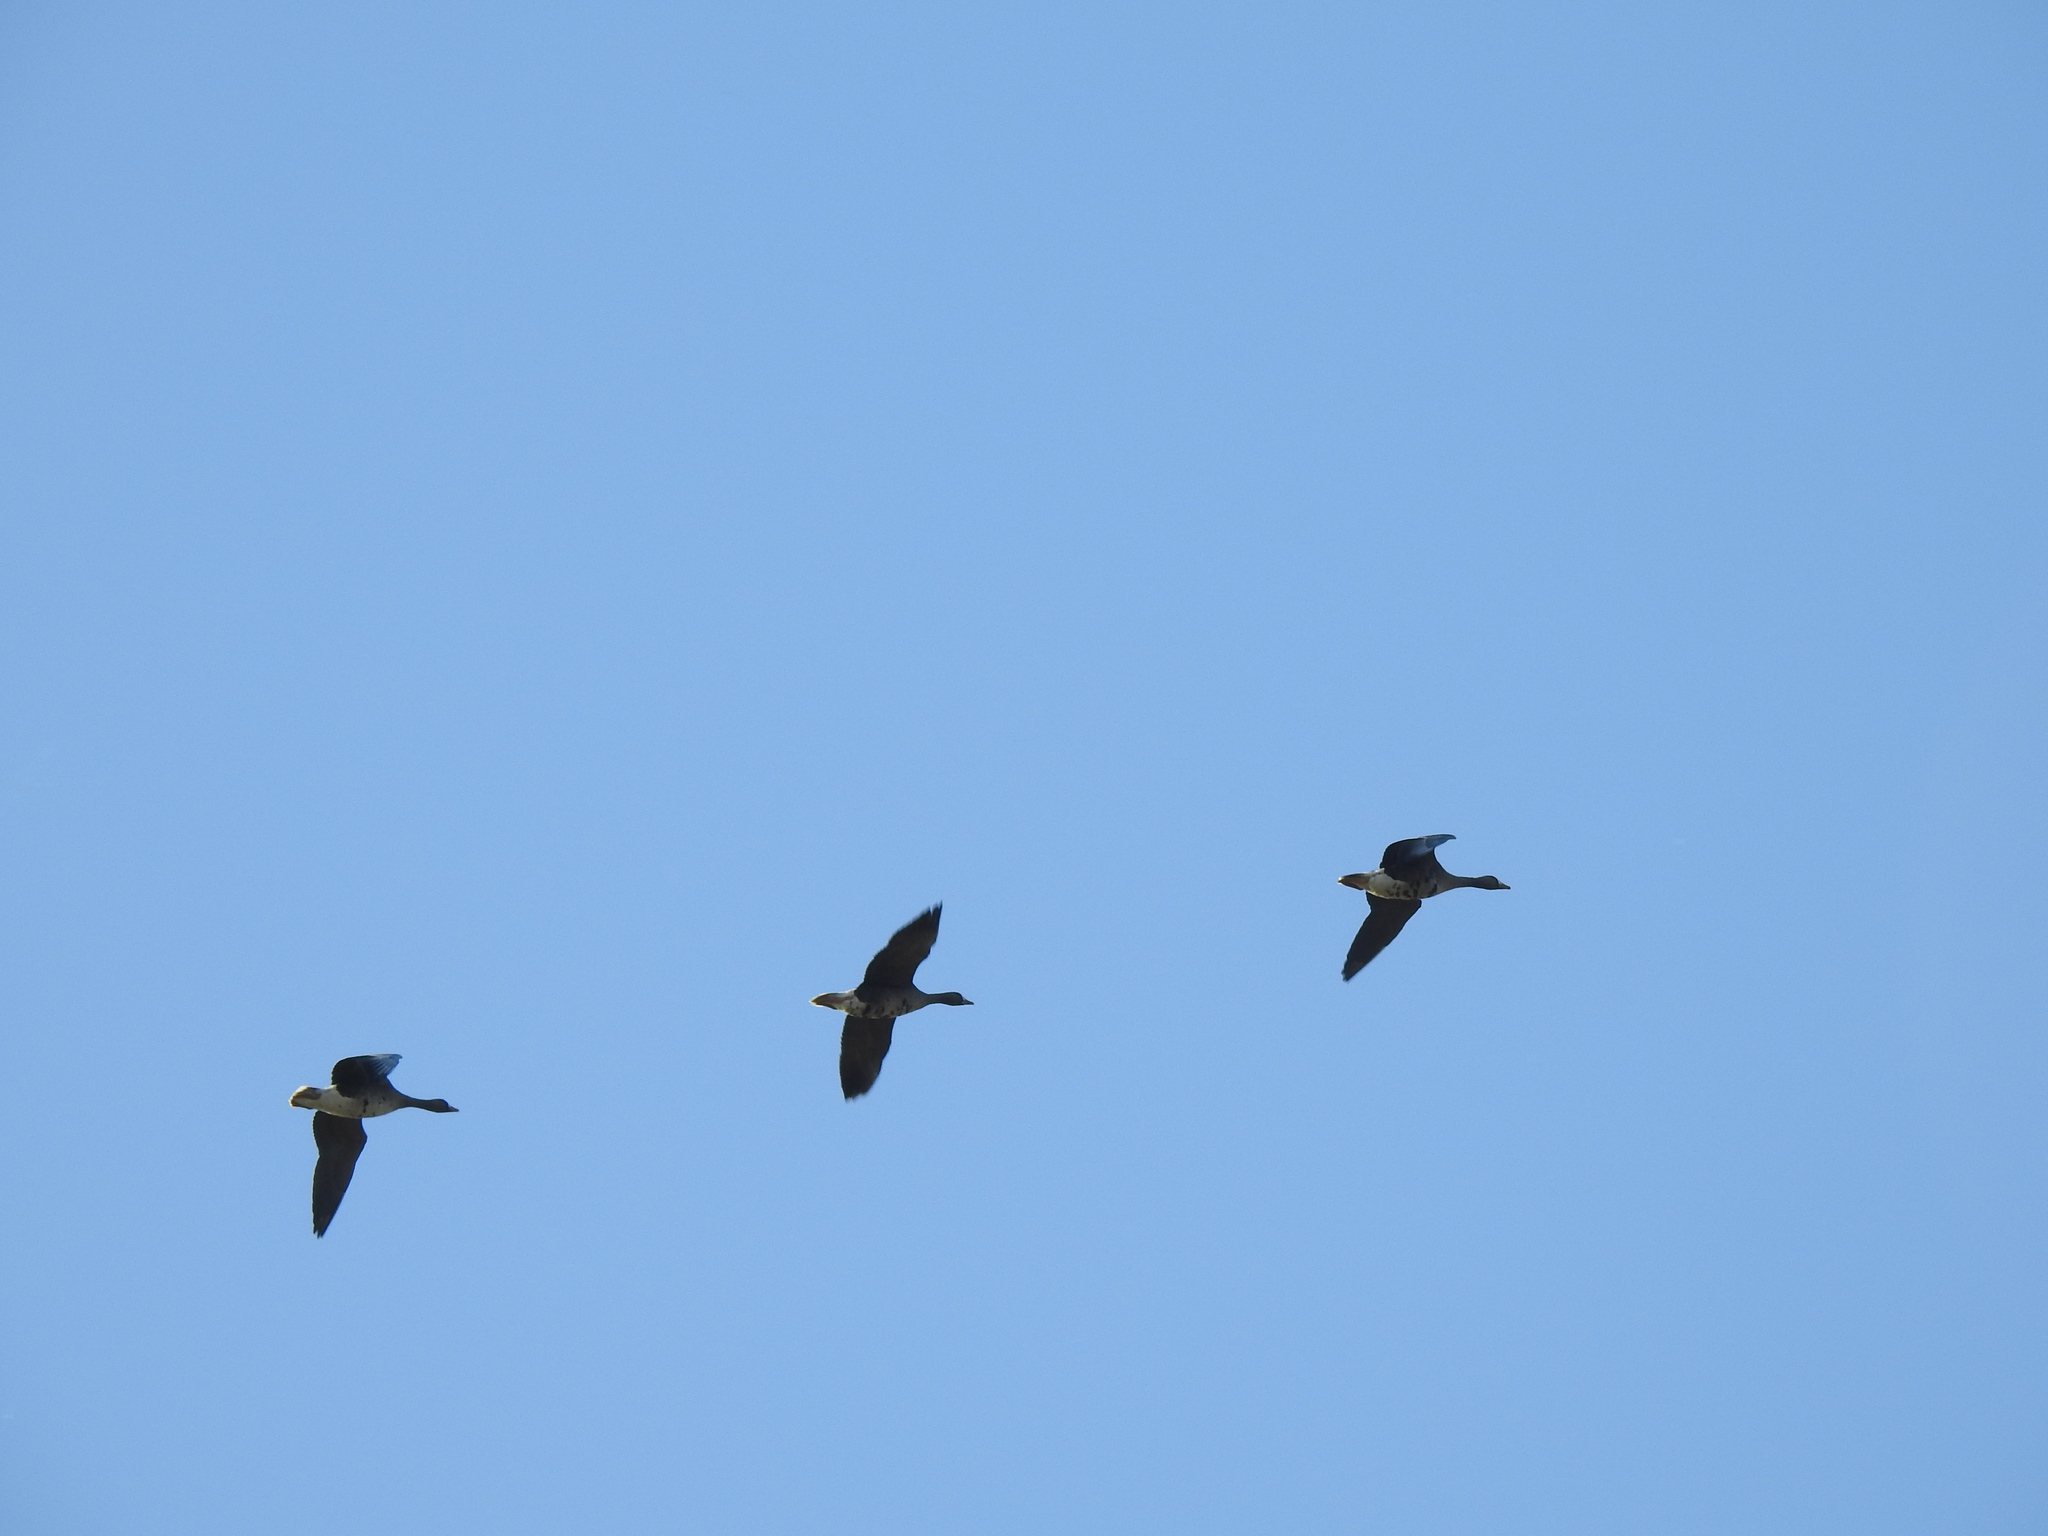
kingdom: Animalia
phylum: Chordata
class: Aves
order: Anseriformes
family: Anatidae
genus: Anser
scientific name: Anser albifrons
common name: Greater white-fronted goose
